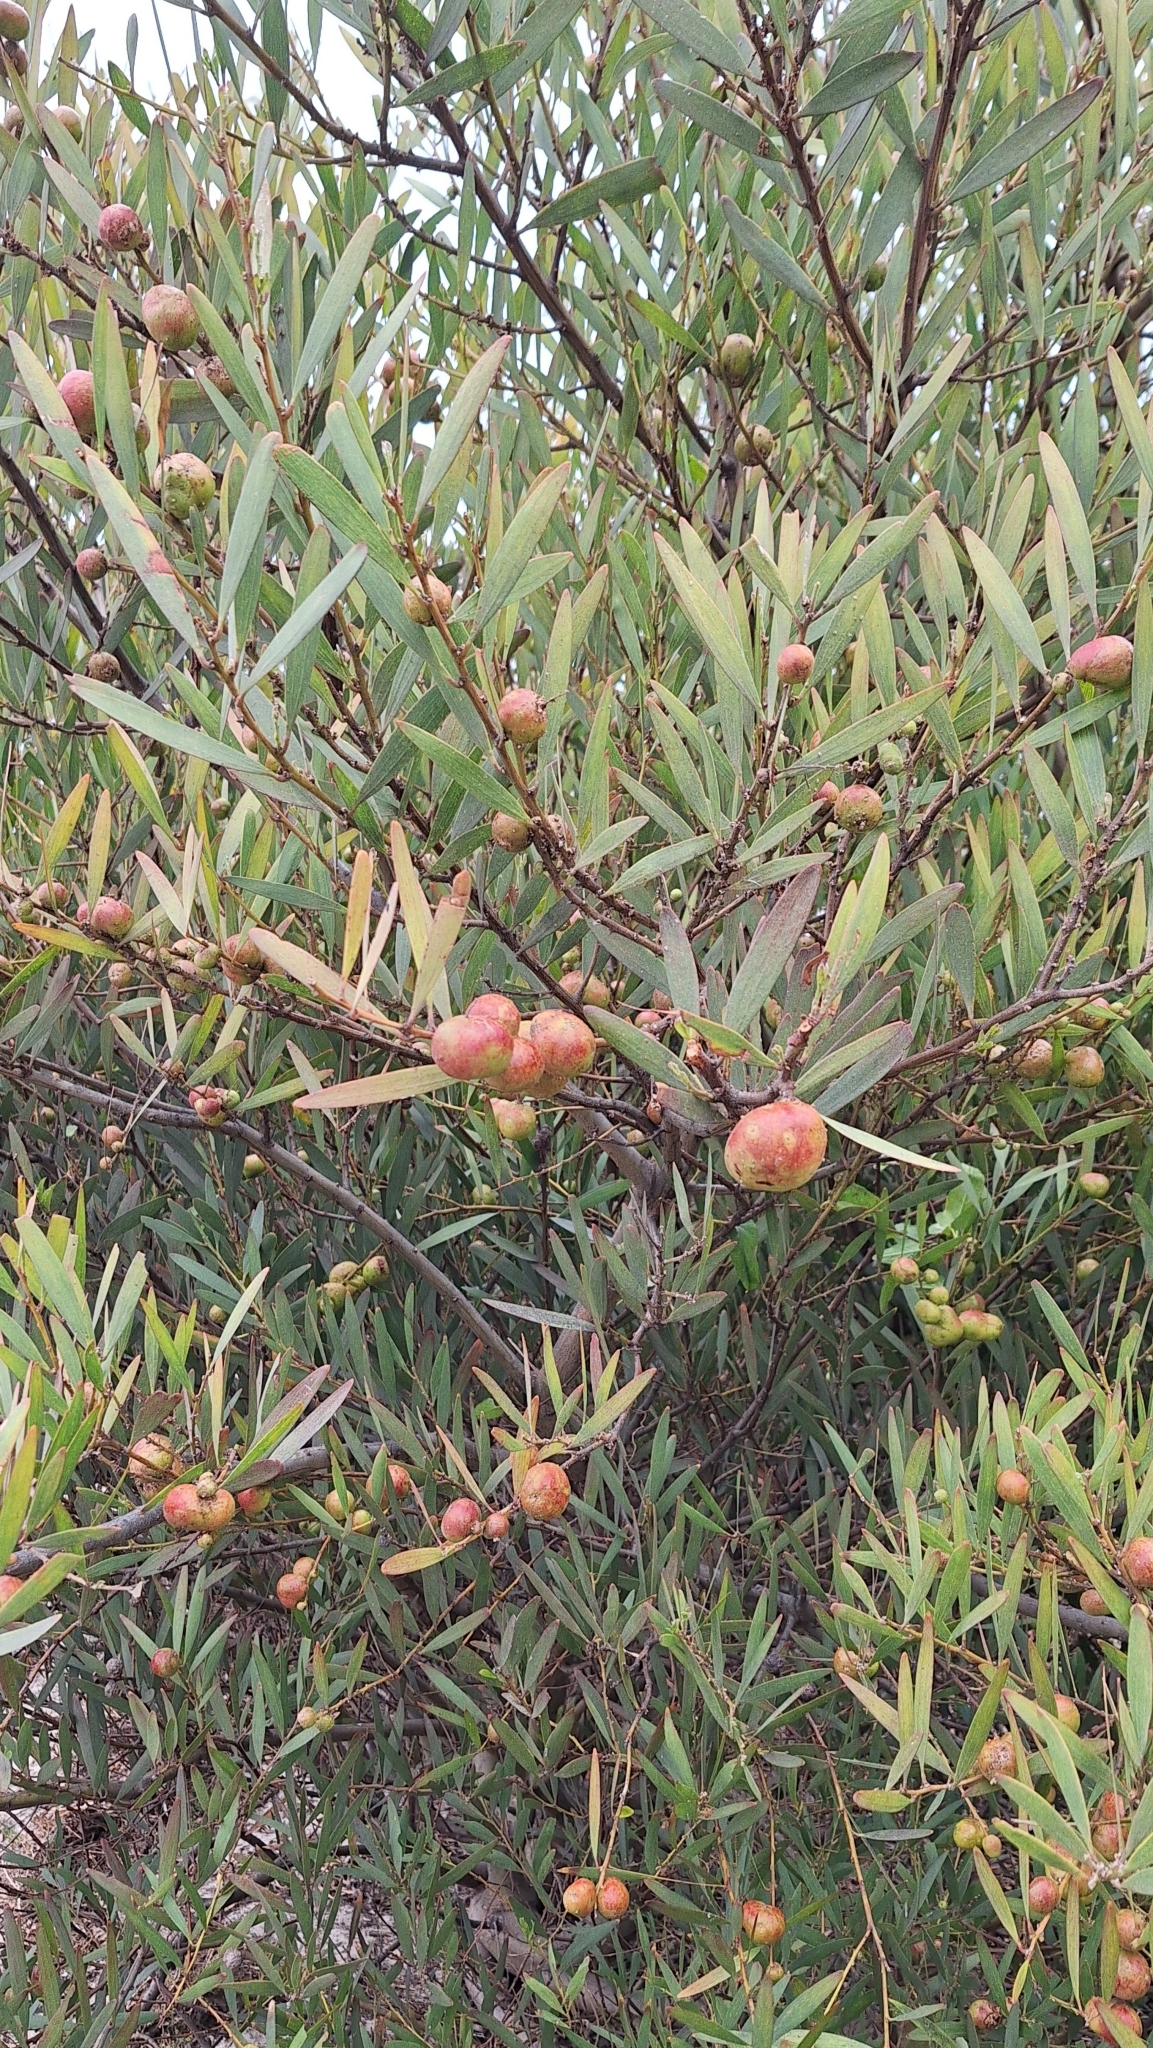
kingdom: Animalia
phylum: Arthropoda
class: Insecta
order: Hymenoptera
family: Pteromalidae
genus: Trichilogaster
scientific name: Trichilogaster acaciaelongifoliae
